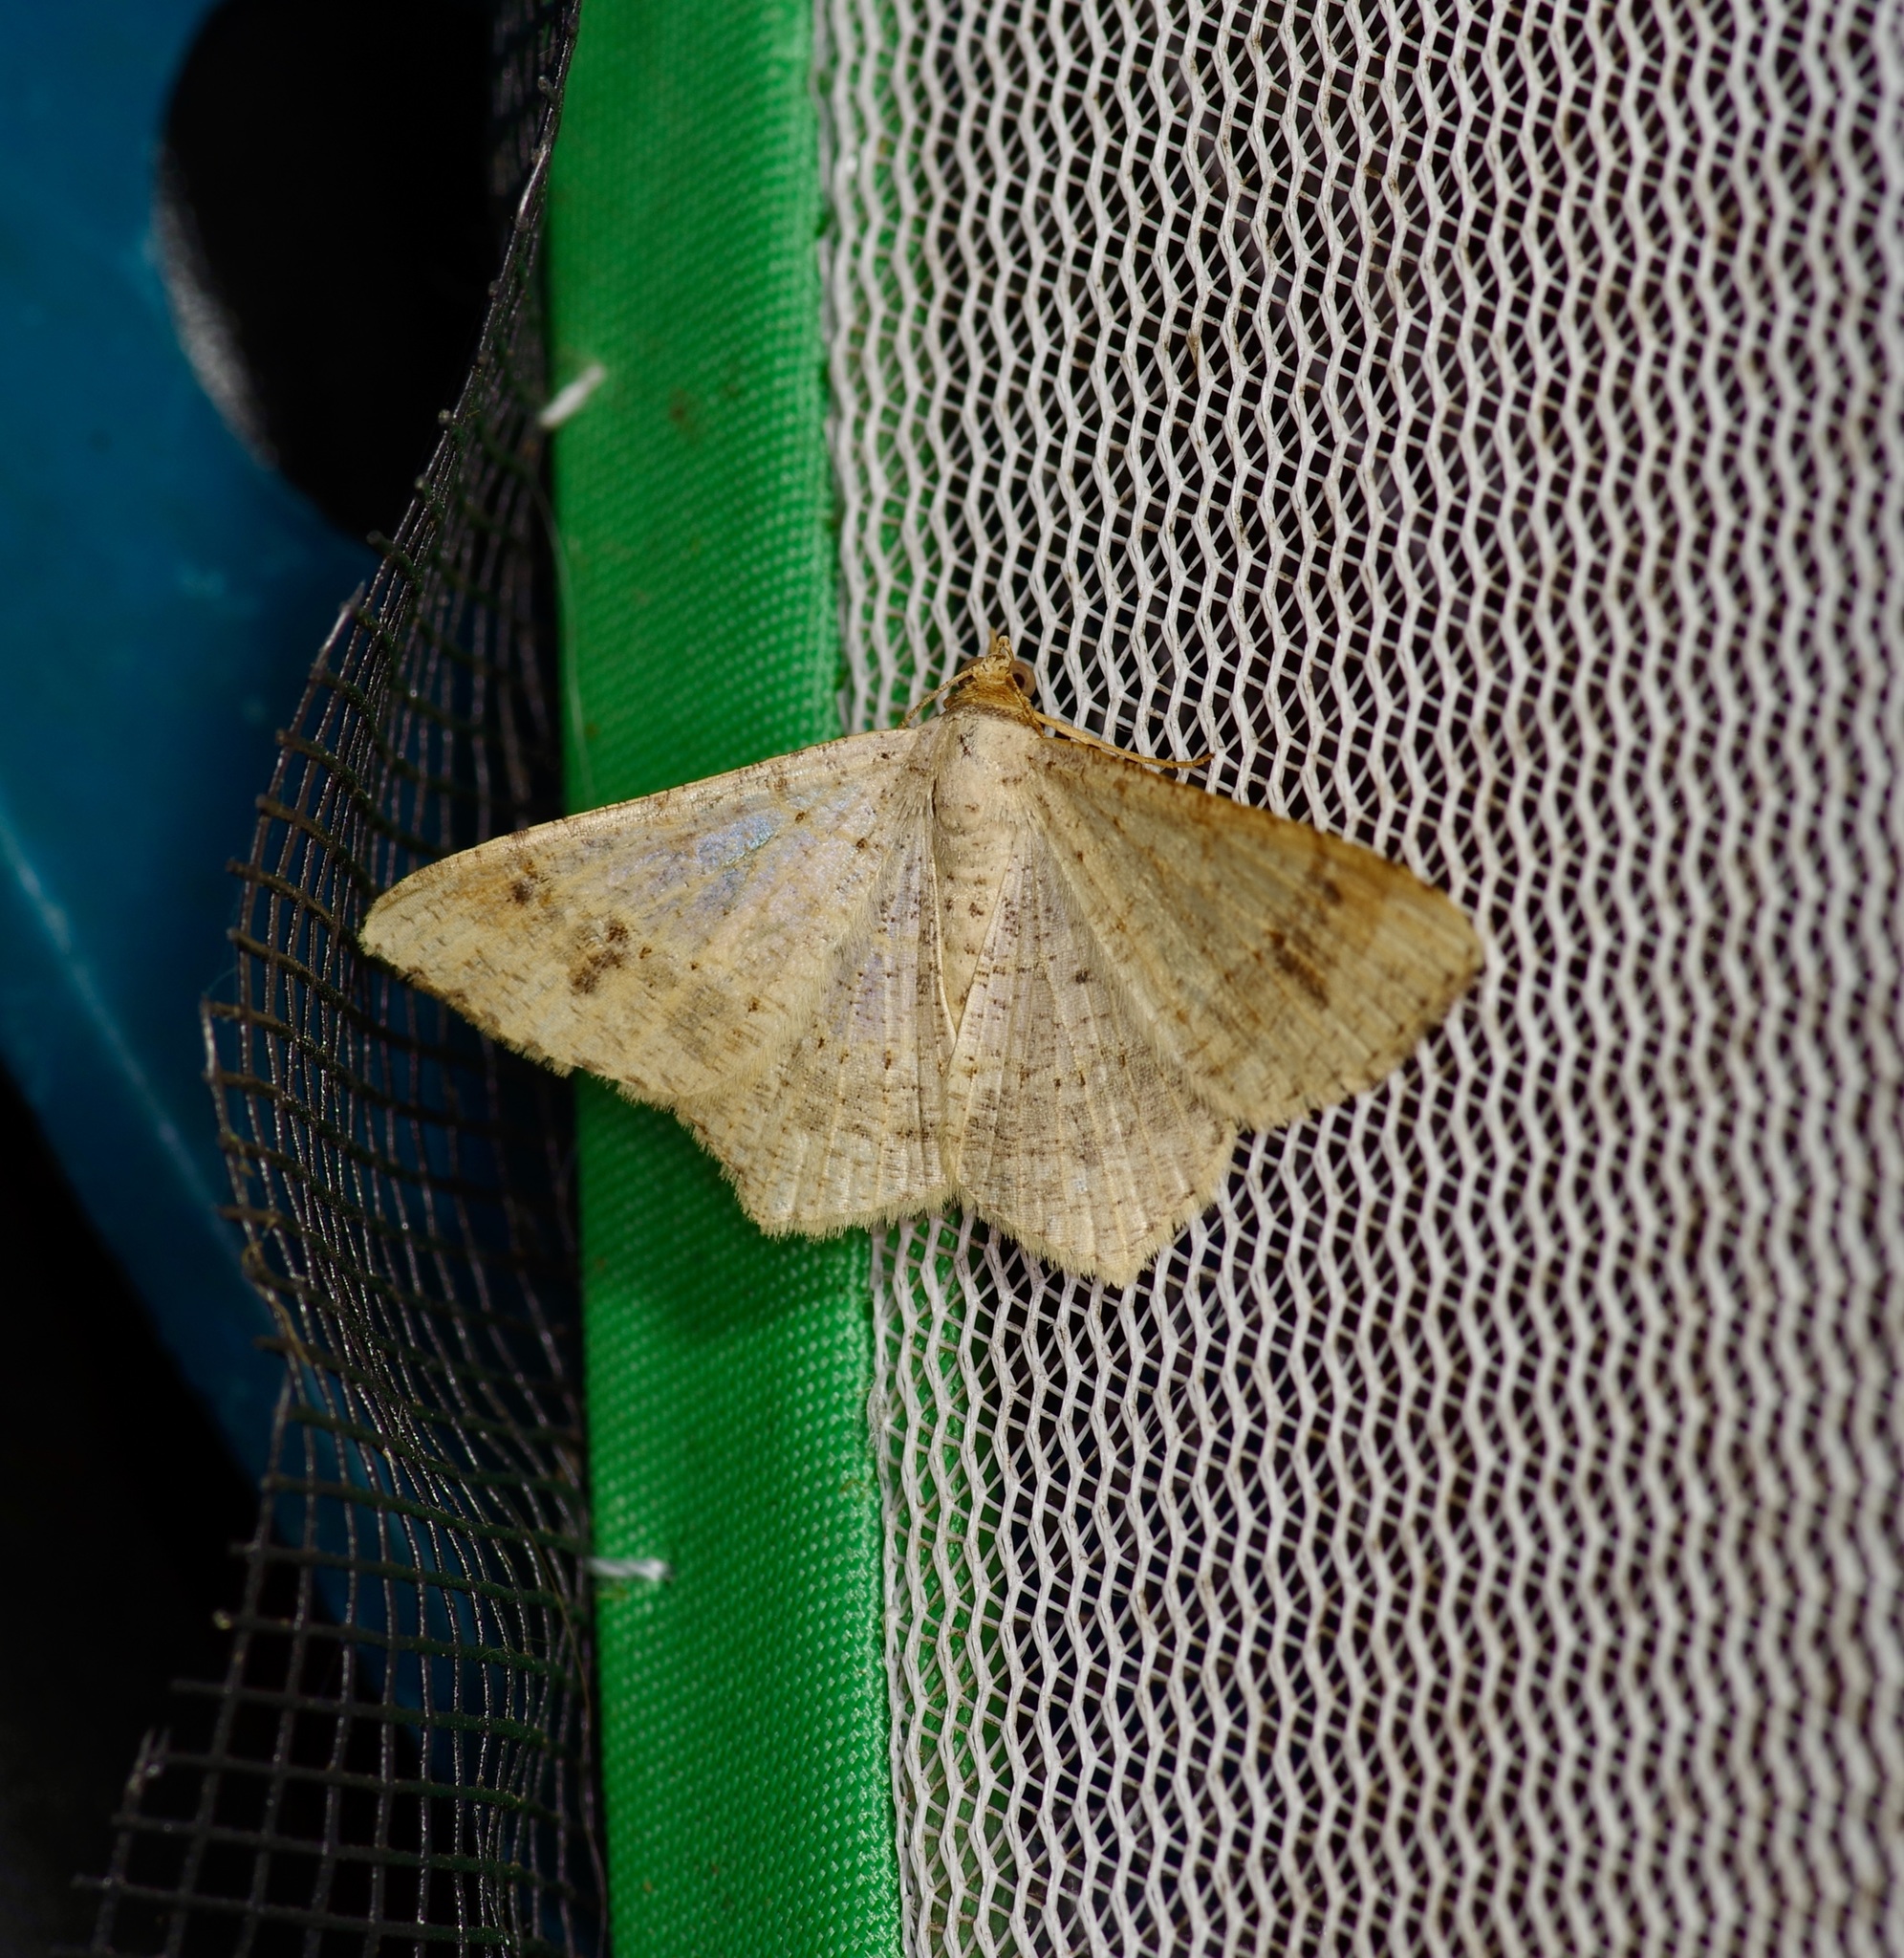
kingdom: Animalia
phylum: Arthropoda
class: Insecta
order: Lepidoptera
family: Geometridae
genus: Macaria
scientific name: Macaria abydata
